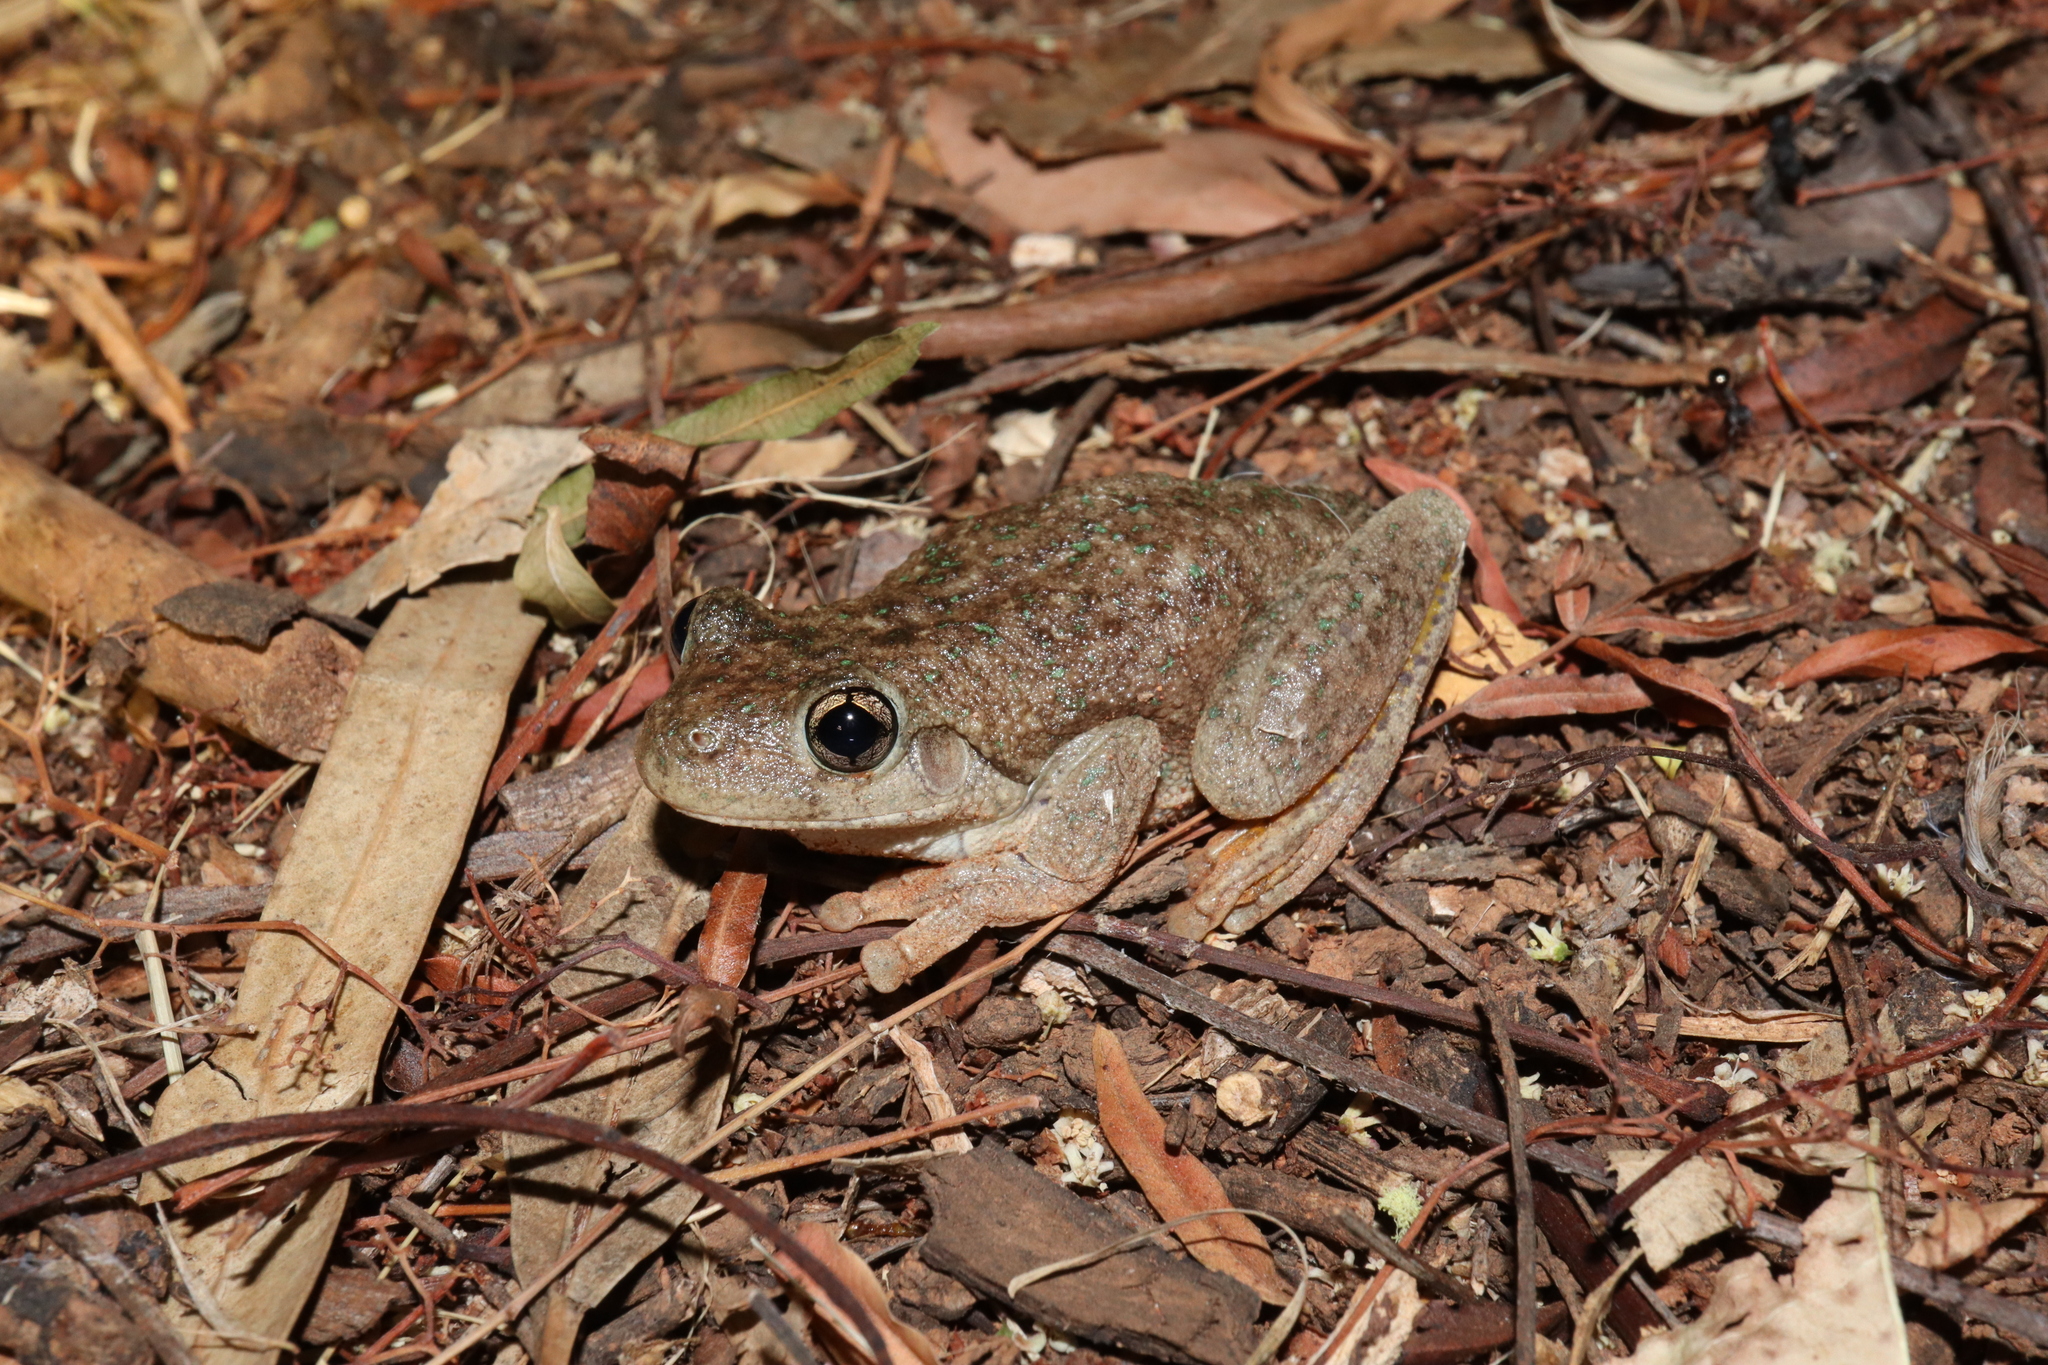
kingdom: Animalia
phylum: Chordata
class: Amphibia
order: Anura
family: Pelodryadidae
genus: Litoria
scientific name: Litoria peronii
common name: Emerald spotted treefrog
